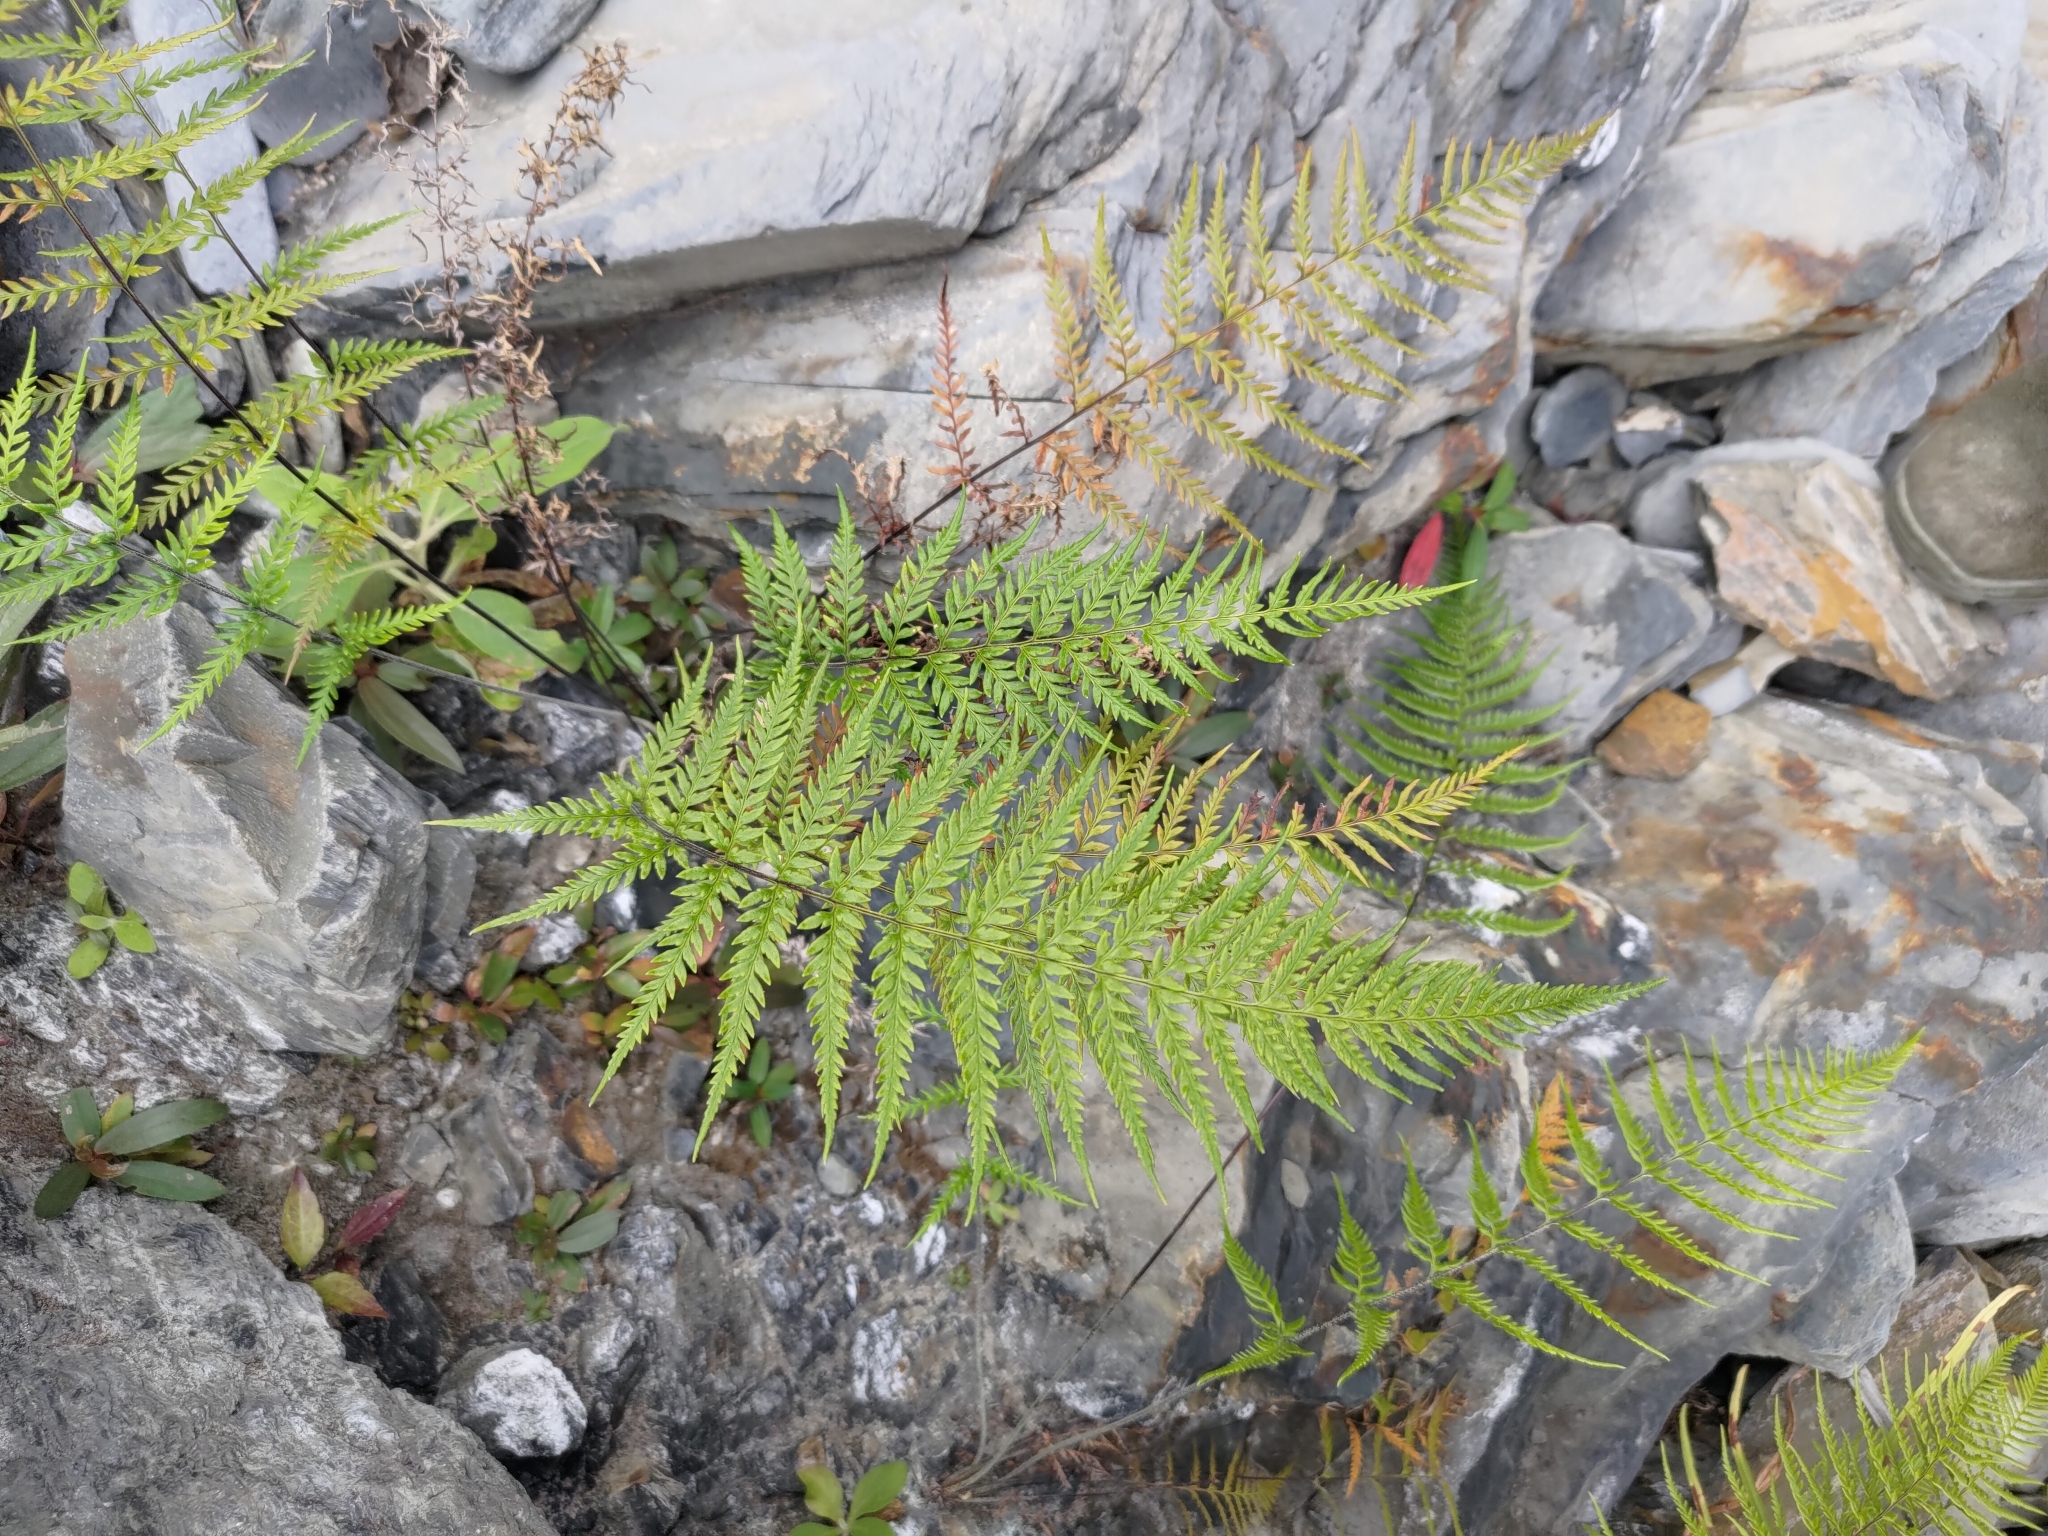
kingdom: Plantae
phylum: Tracheophyta
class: Polypodiopsida
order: Polypodiales
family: Pteridaceae
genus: Pityrogramma
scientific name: Pityrogramma calomelanos
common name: Dixie silverback fern
